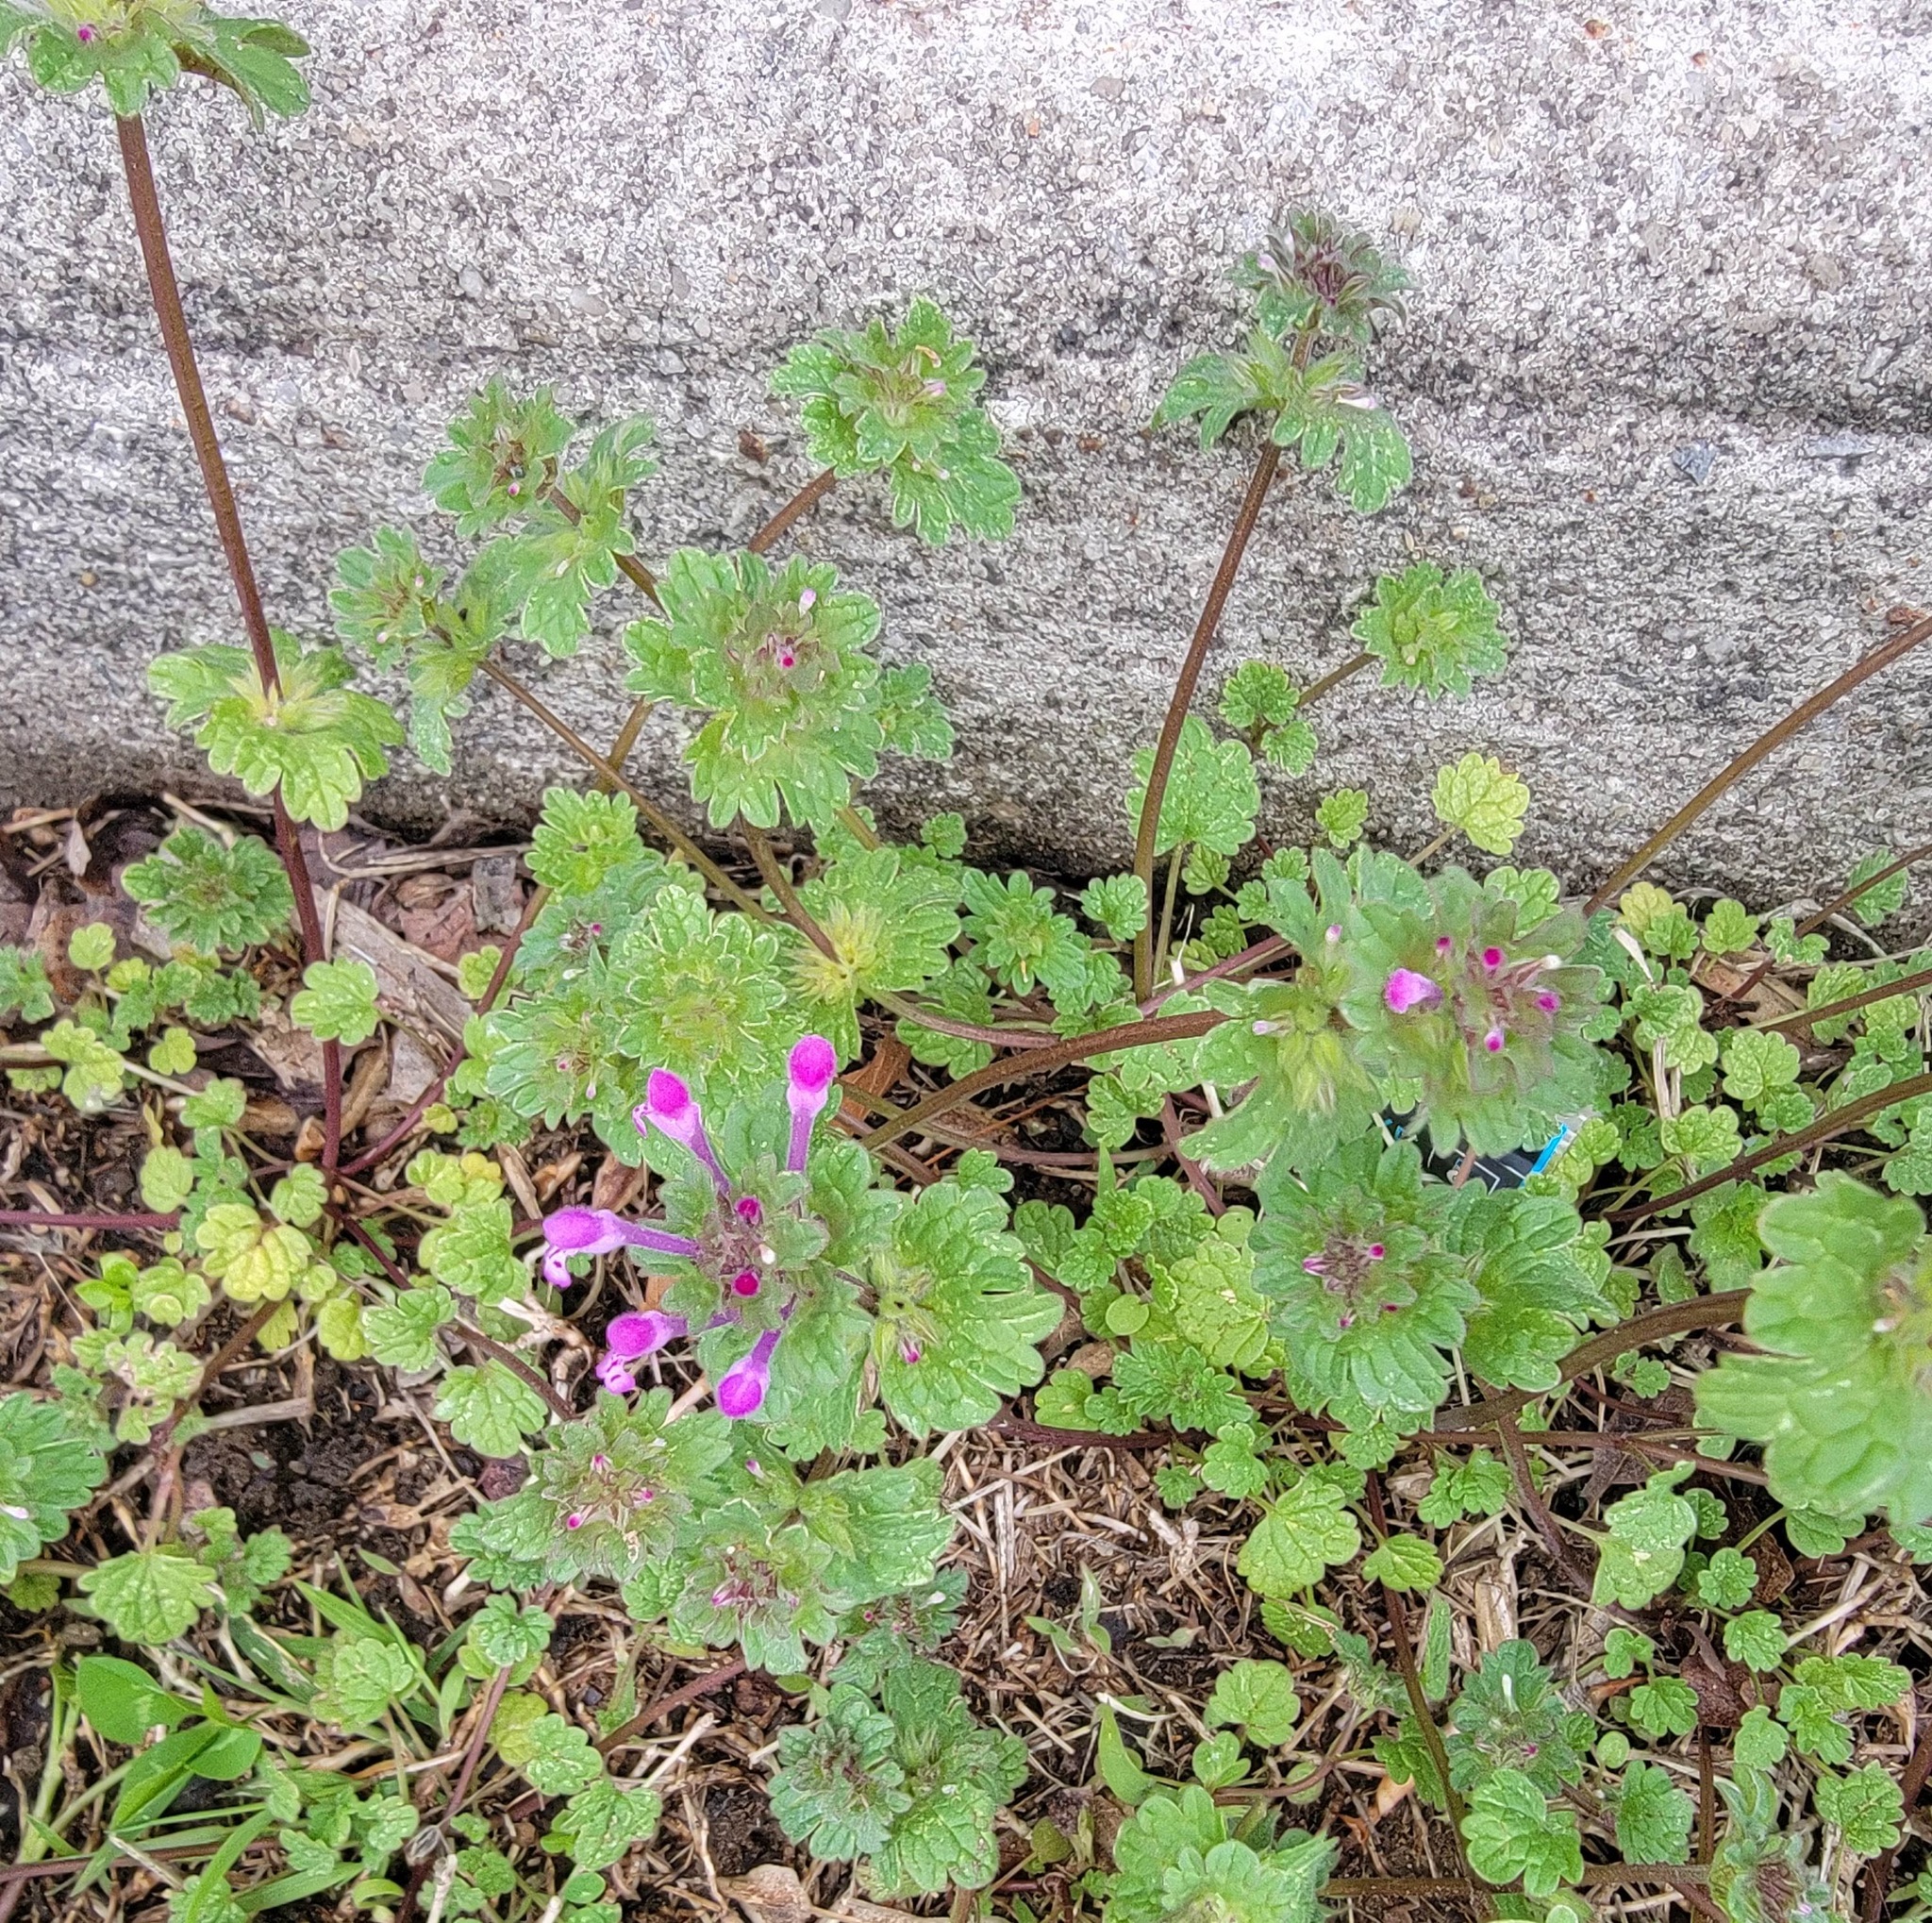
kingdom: Plantae
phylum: Tracheophyta
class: Magnoliopsida
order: Lamiales
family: Lamiaceae
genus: Lamium
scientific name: Lamium amplexicaule
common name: Henbit dead-nettle
